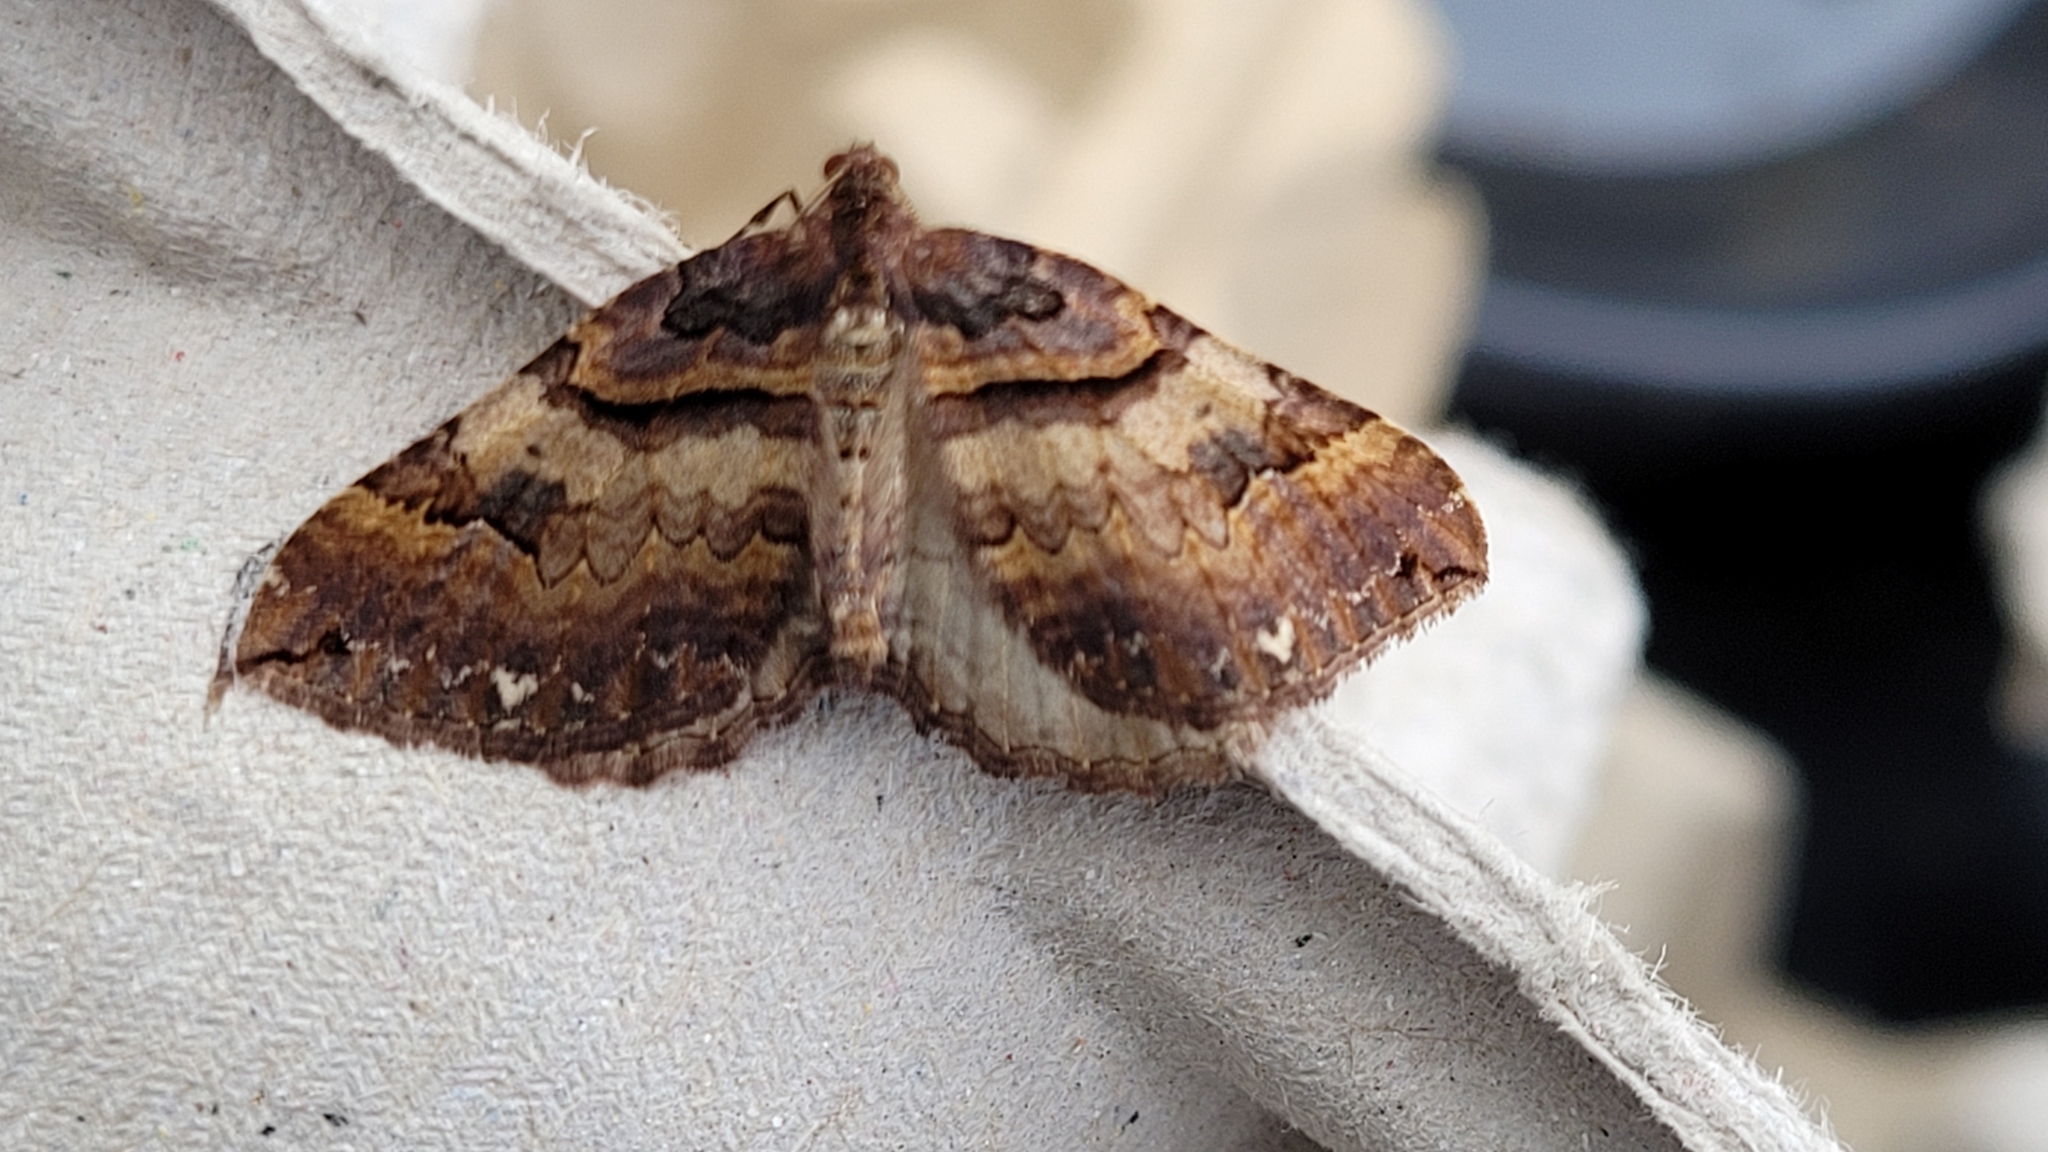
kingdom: Animalia
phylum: Arthropoda
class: Insecta
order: Lepidoptera
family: Geometridae
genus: Anticlea
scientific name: Anticlea badiata
